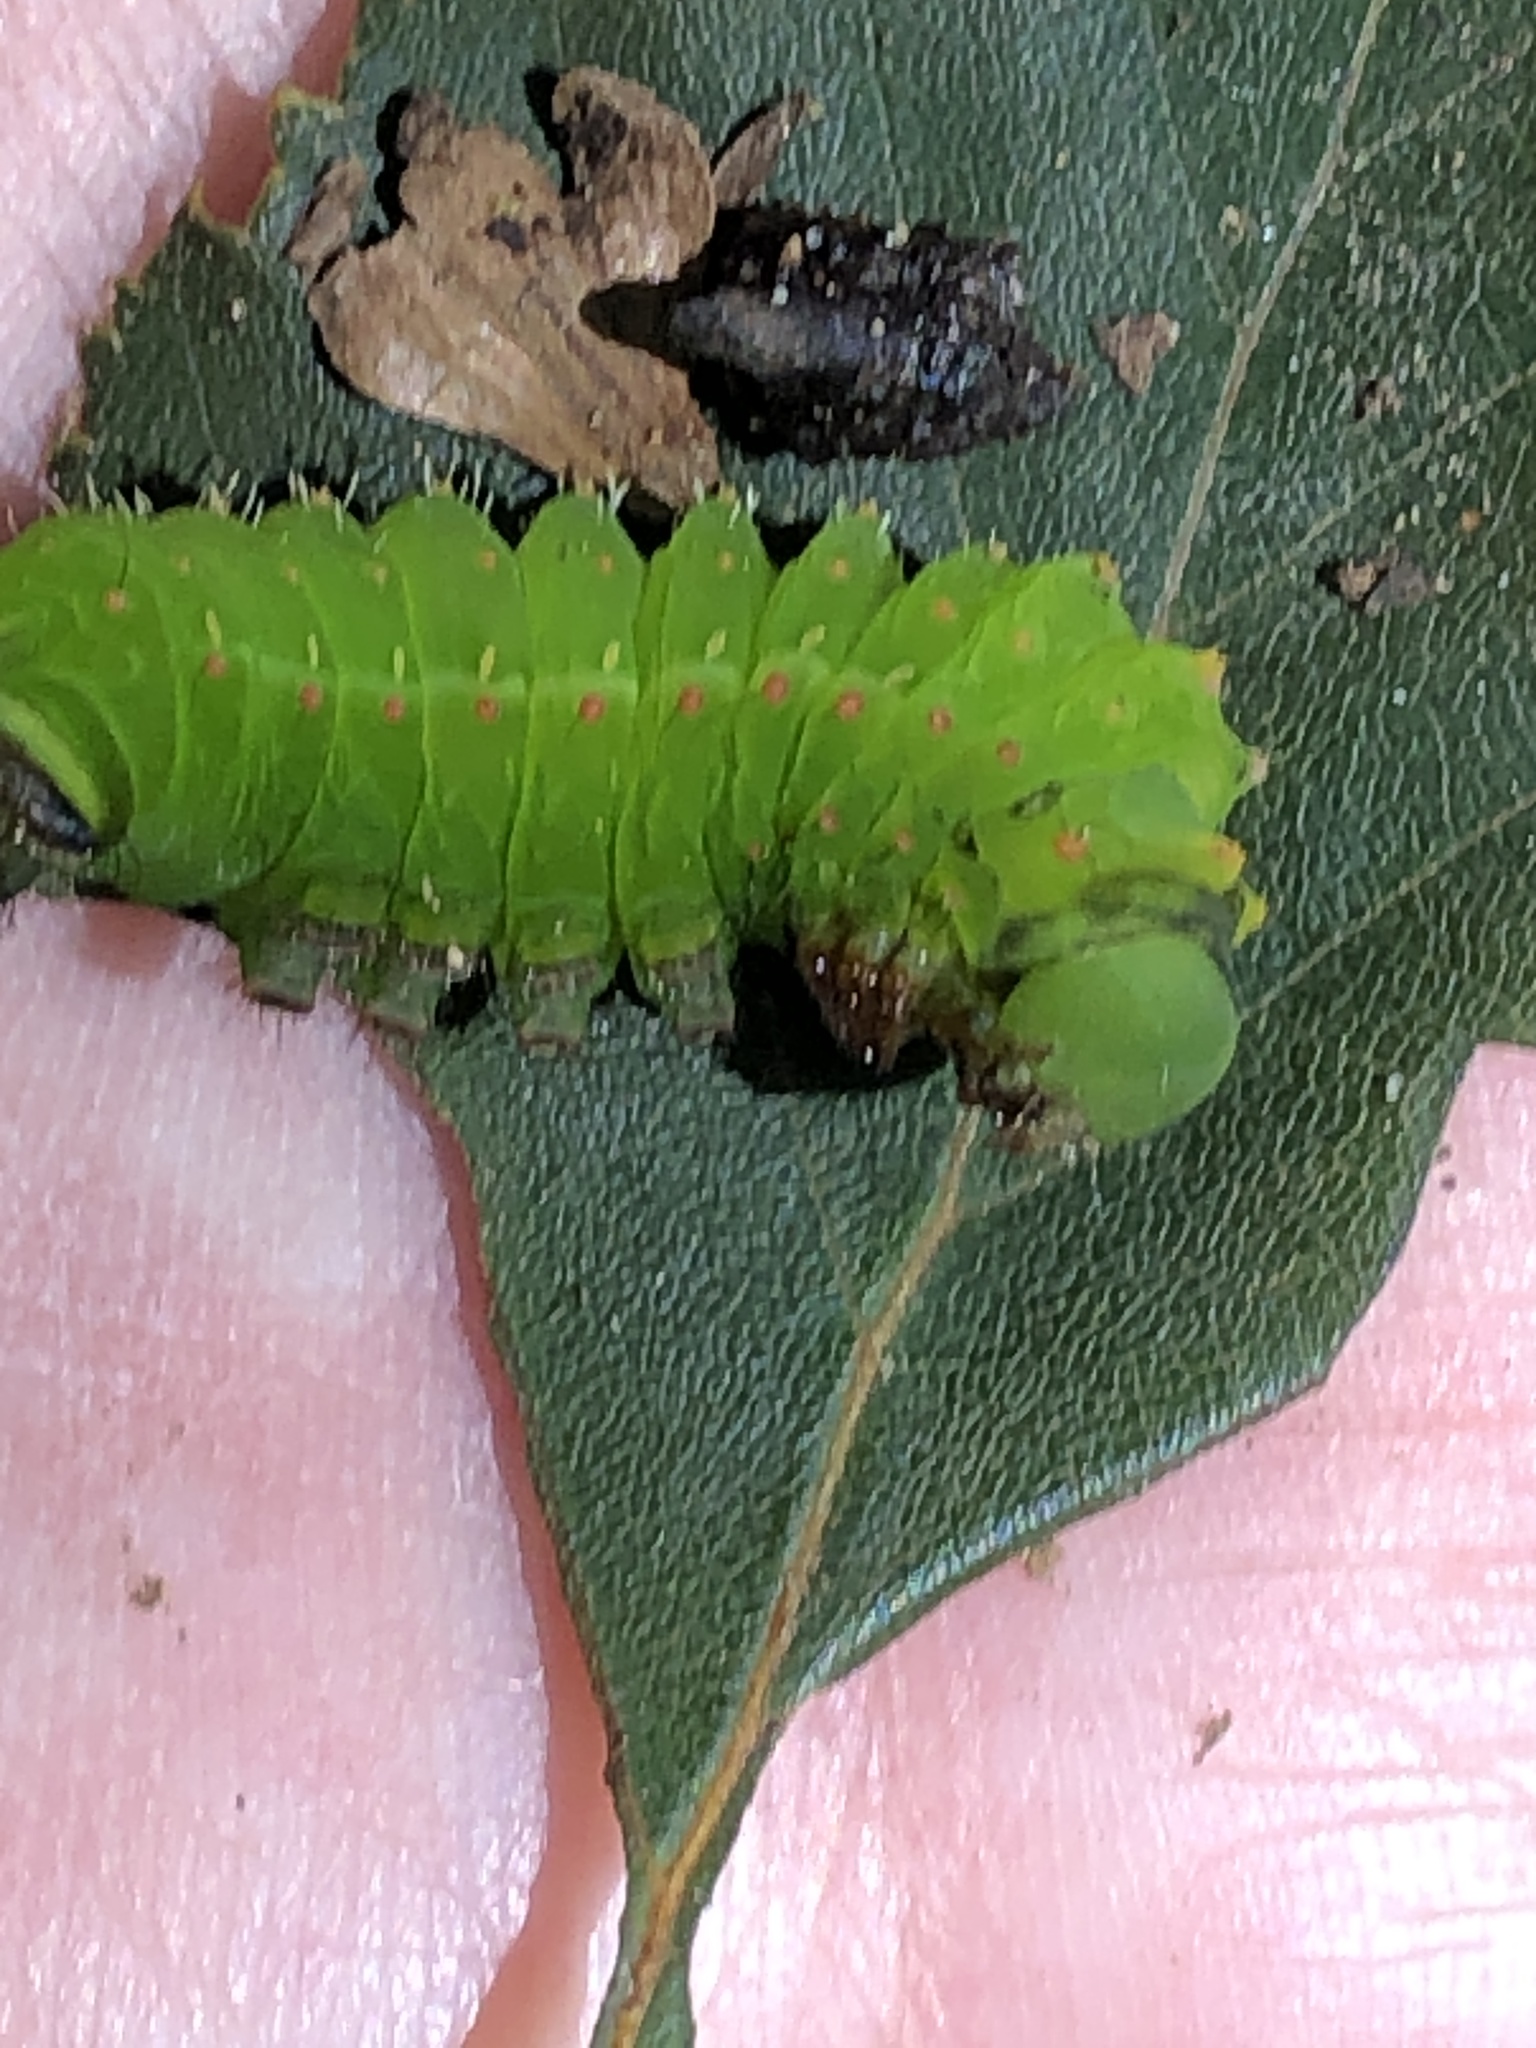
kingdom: Animalia
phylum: Arthropoda
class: Insecta
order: Lepidoptera
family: Saturniidae
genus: Actias
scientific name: Actias luna
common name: Luna moth
